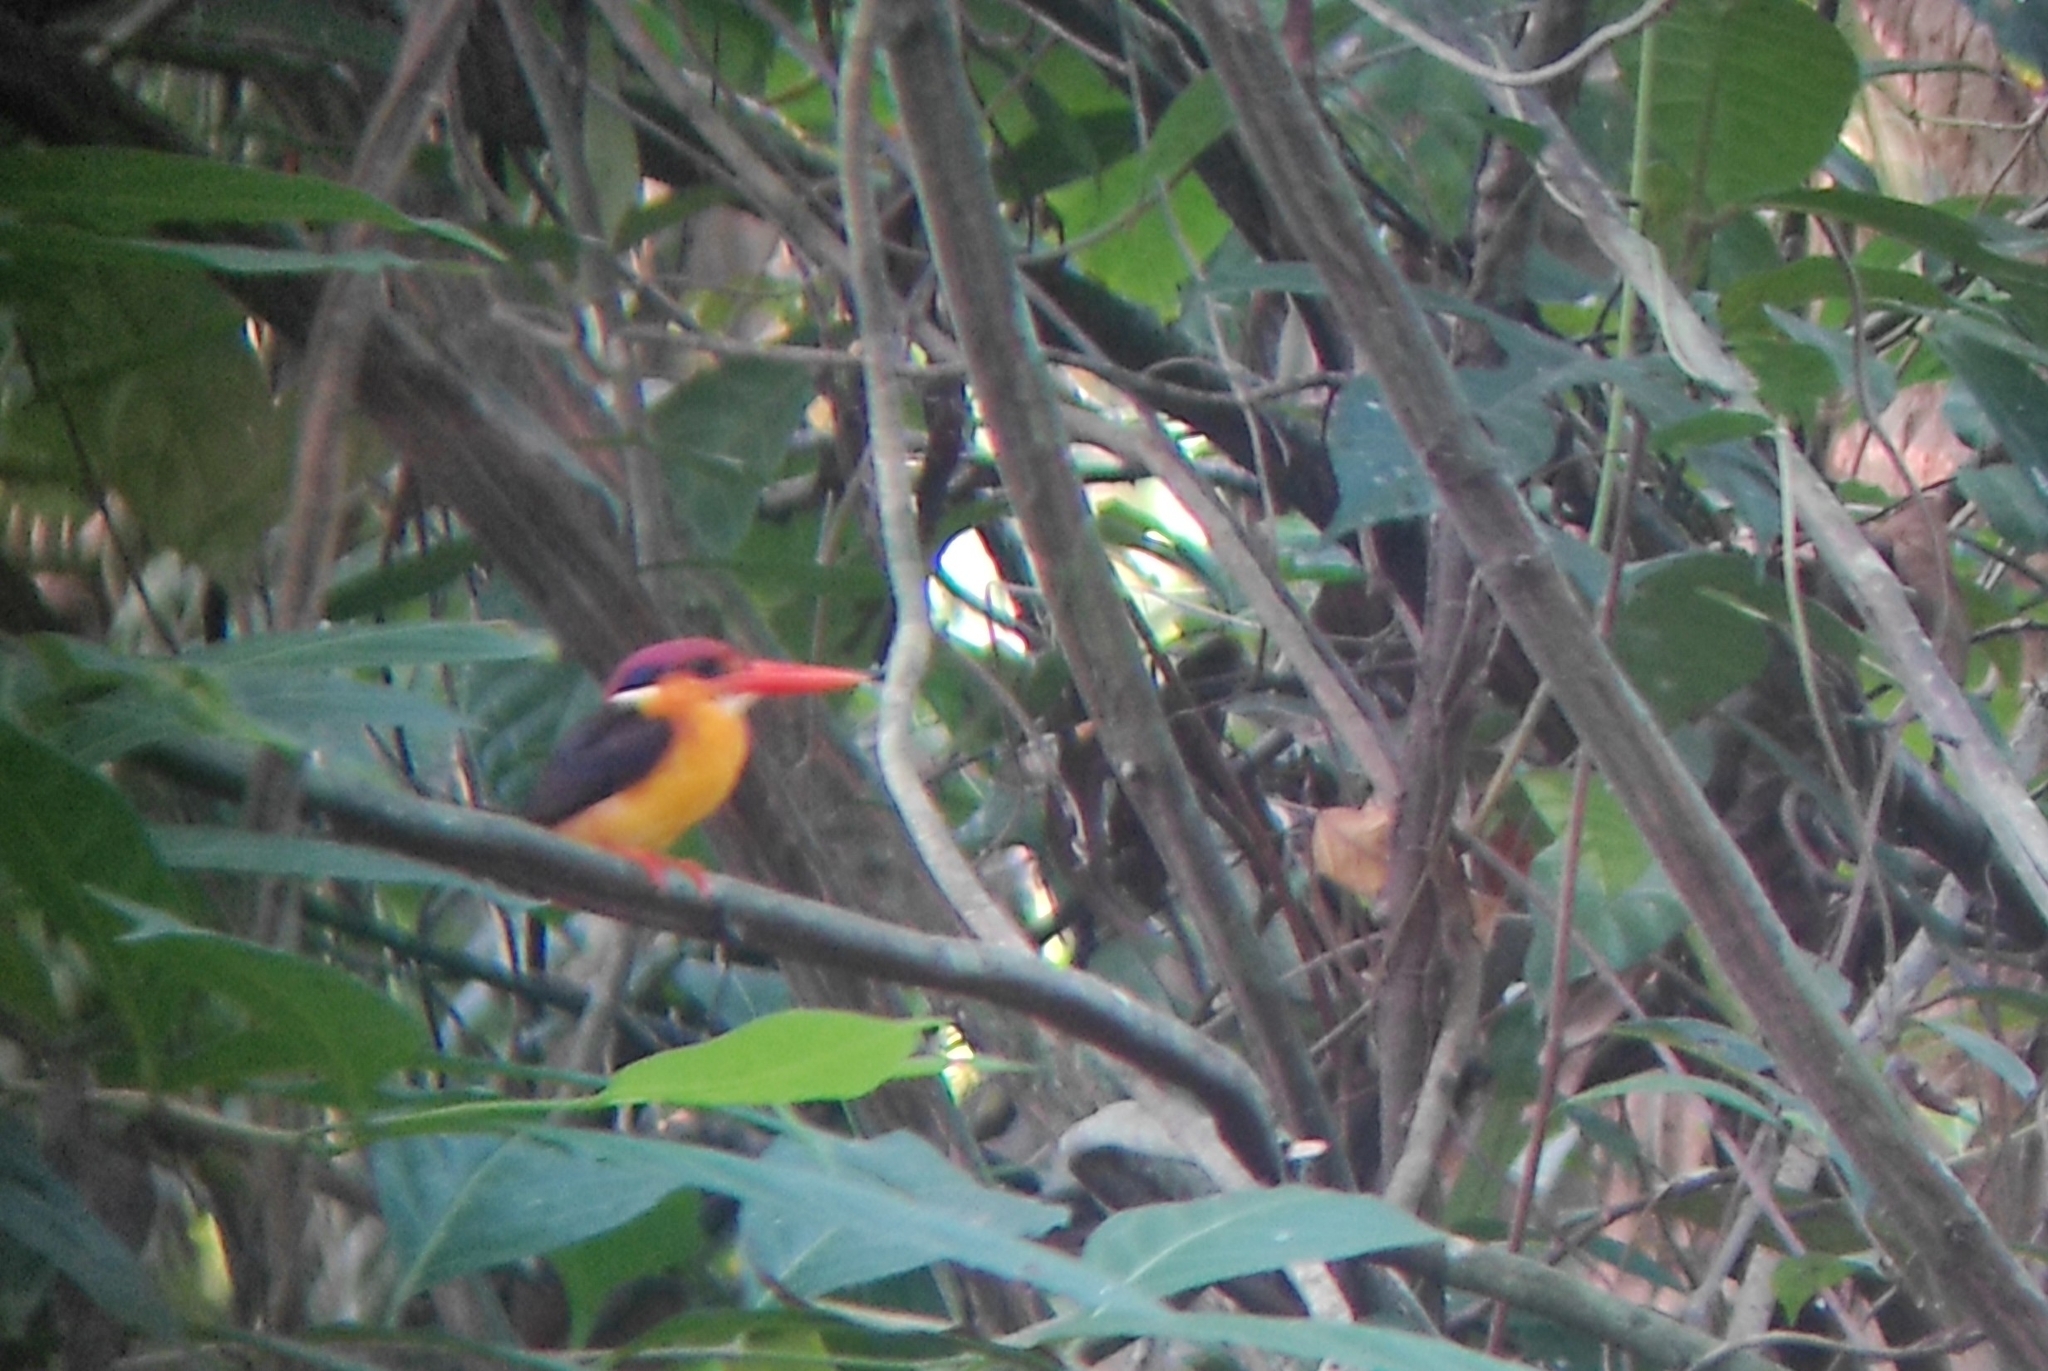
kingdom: Animalia
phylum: Chordata
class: Aves
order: Coraciiformes
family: Alcedinidae
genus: Ceyx
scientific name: Ceyx erithaca
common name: Oriental dwarf kingfisher
